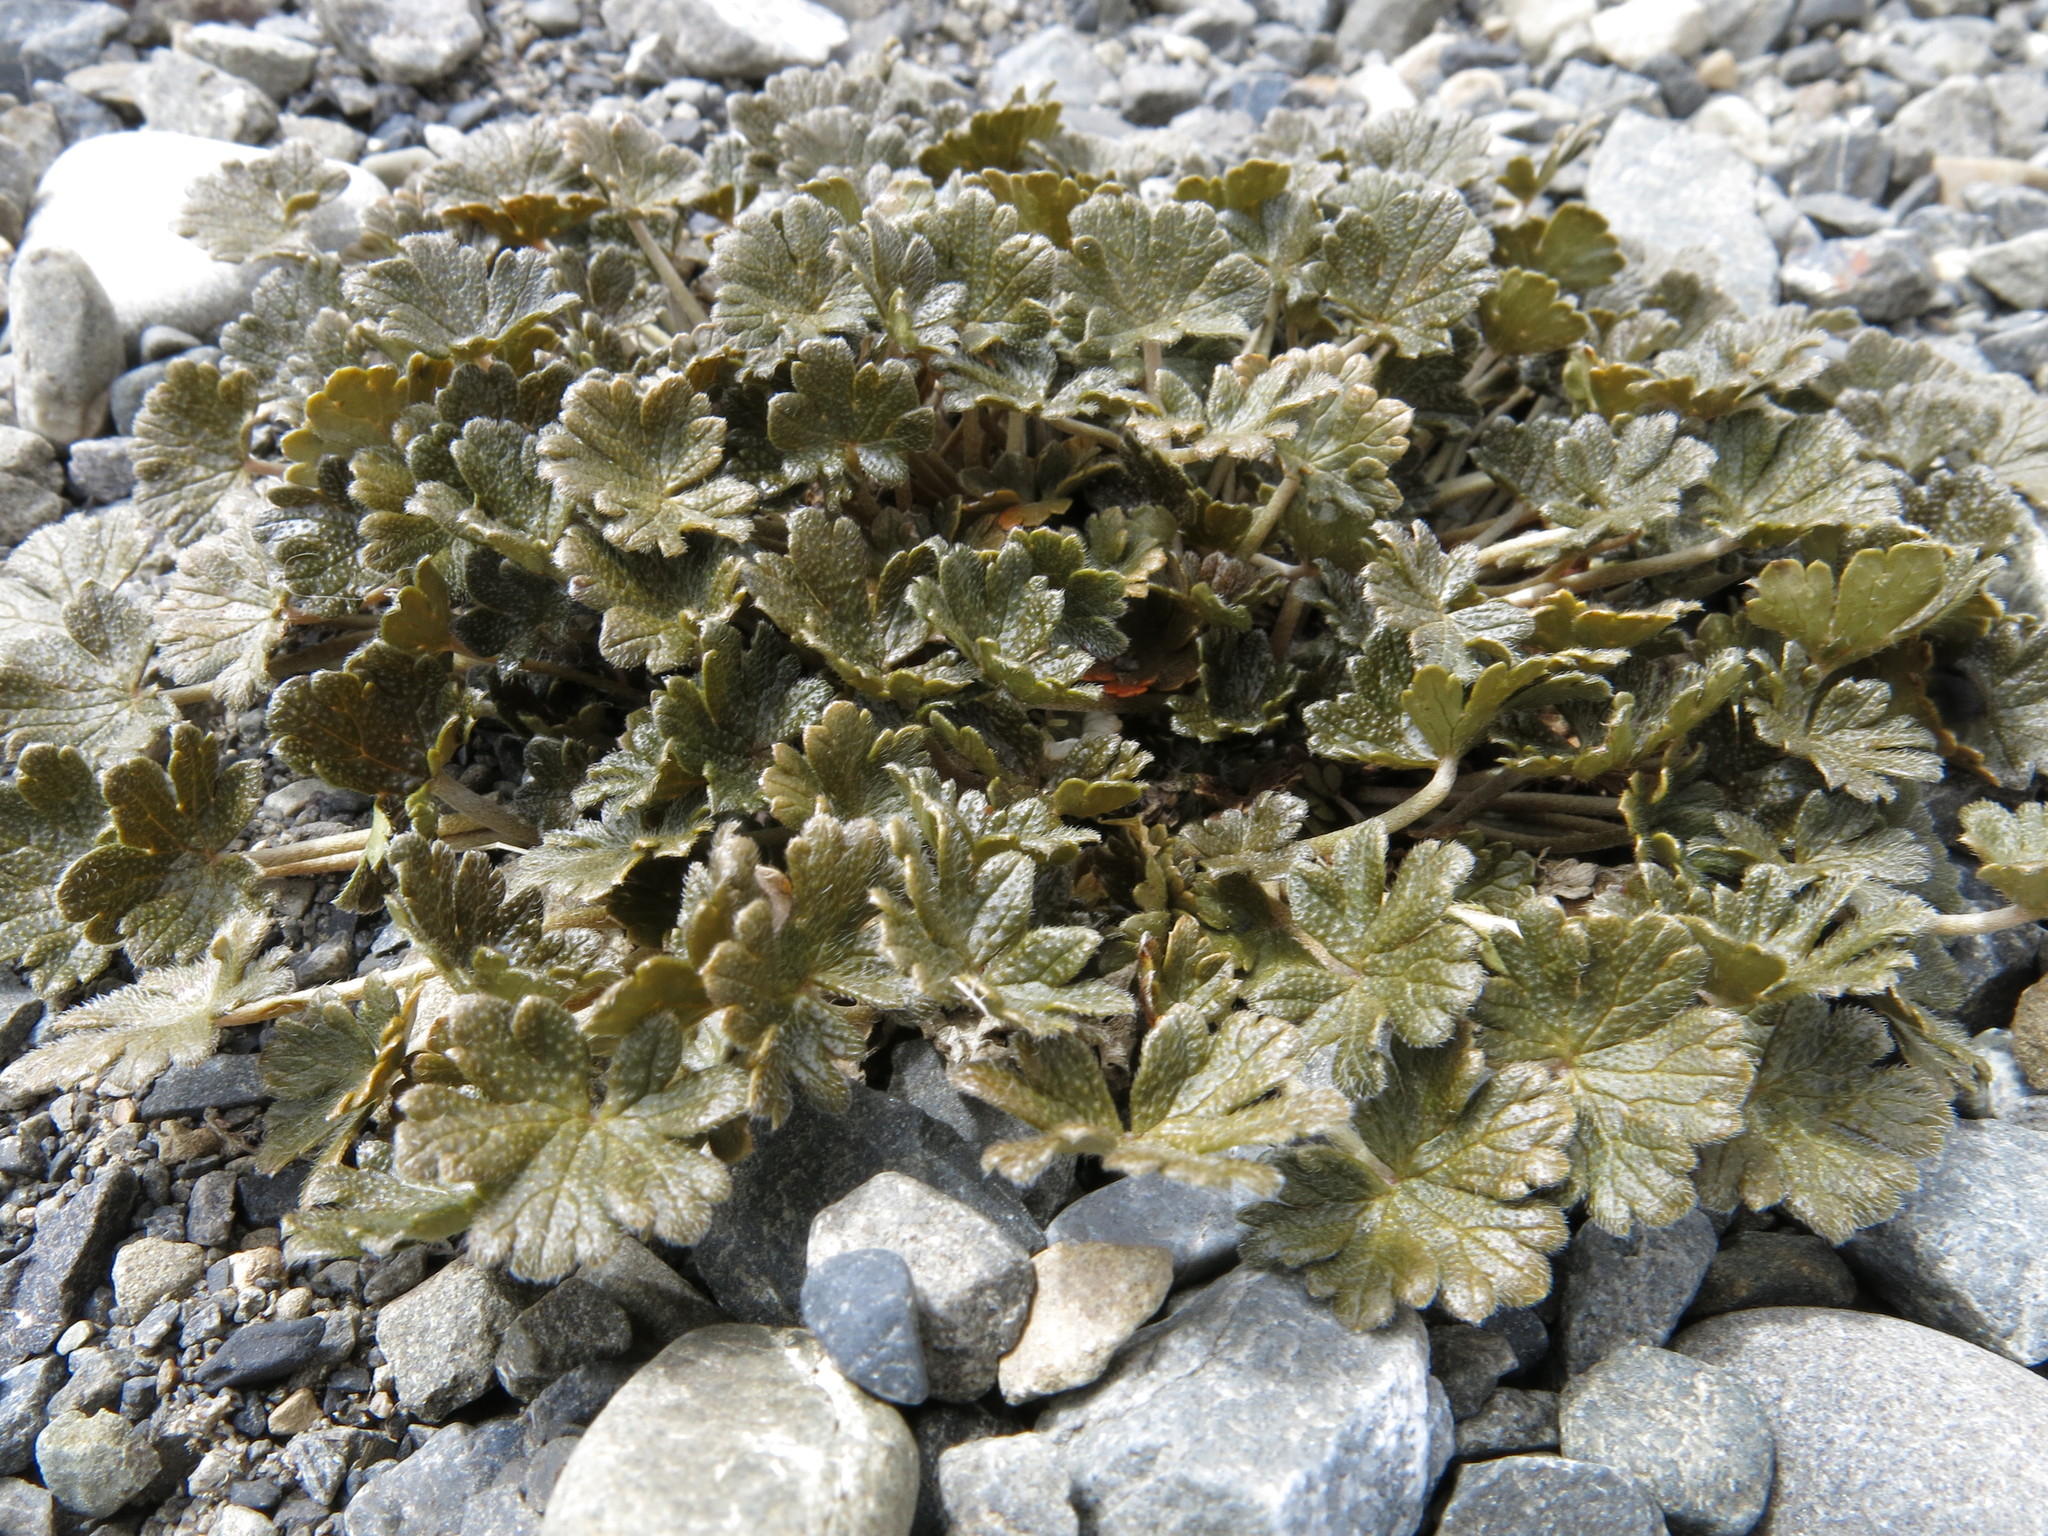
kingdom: Plantae
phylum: Tracheophyta
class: Magnoliopsida
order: Geraniales
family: Geraniaceae
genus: Geranium
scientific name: Geranium brevicaule
